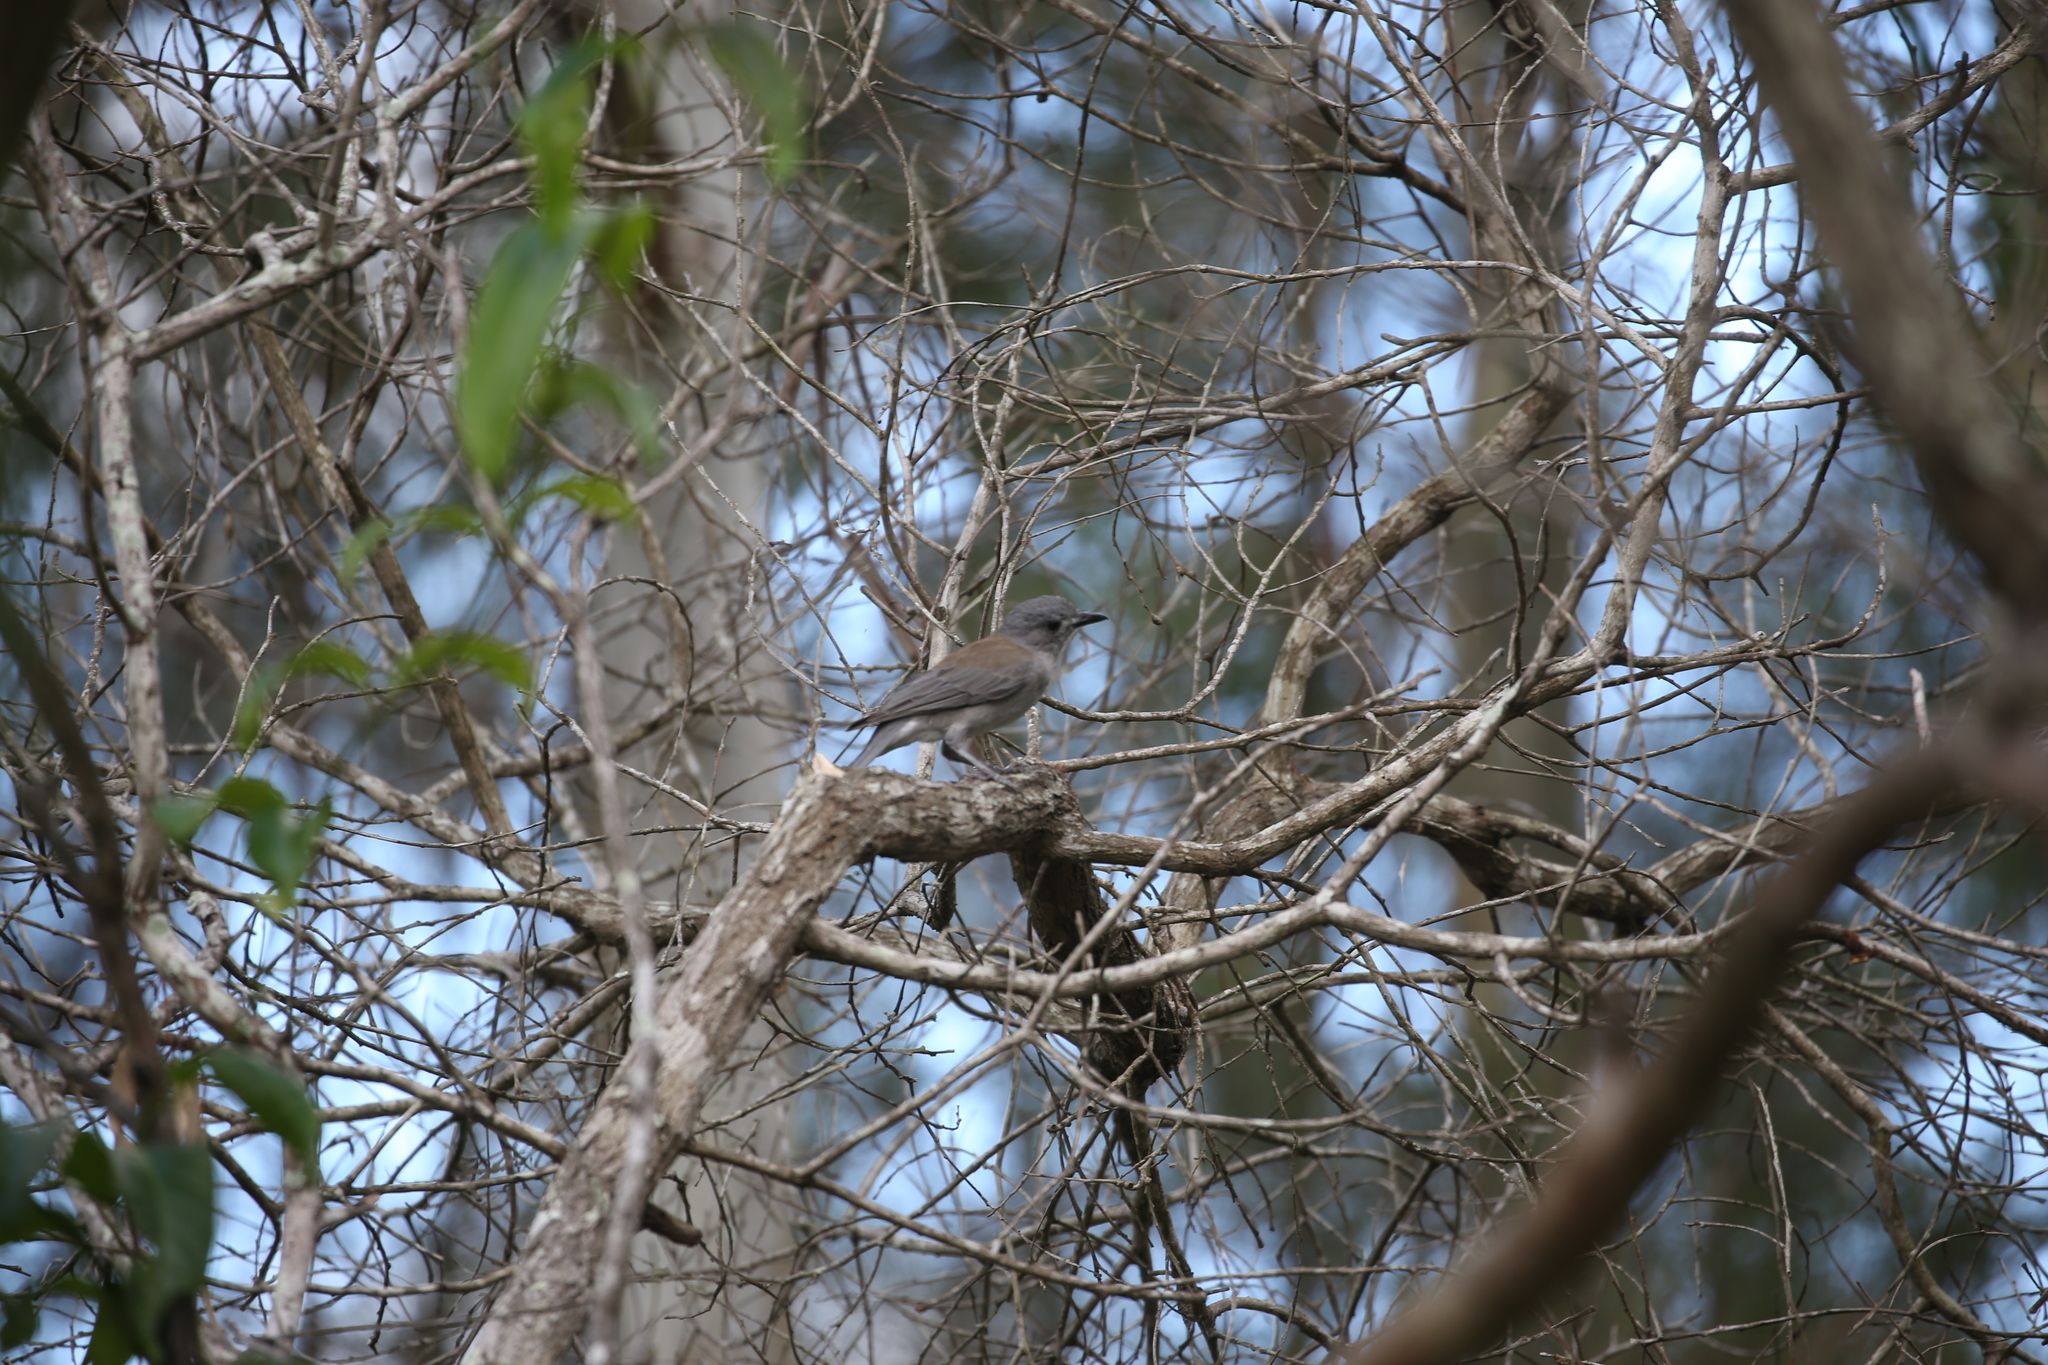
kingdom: Animalia
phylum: Chordata
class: Aves
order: Passeriformes
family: Pachycephalidae
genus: Colluricincla
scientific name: Colluricincla harmonica
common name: Grey shrikethrush
